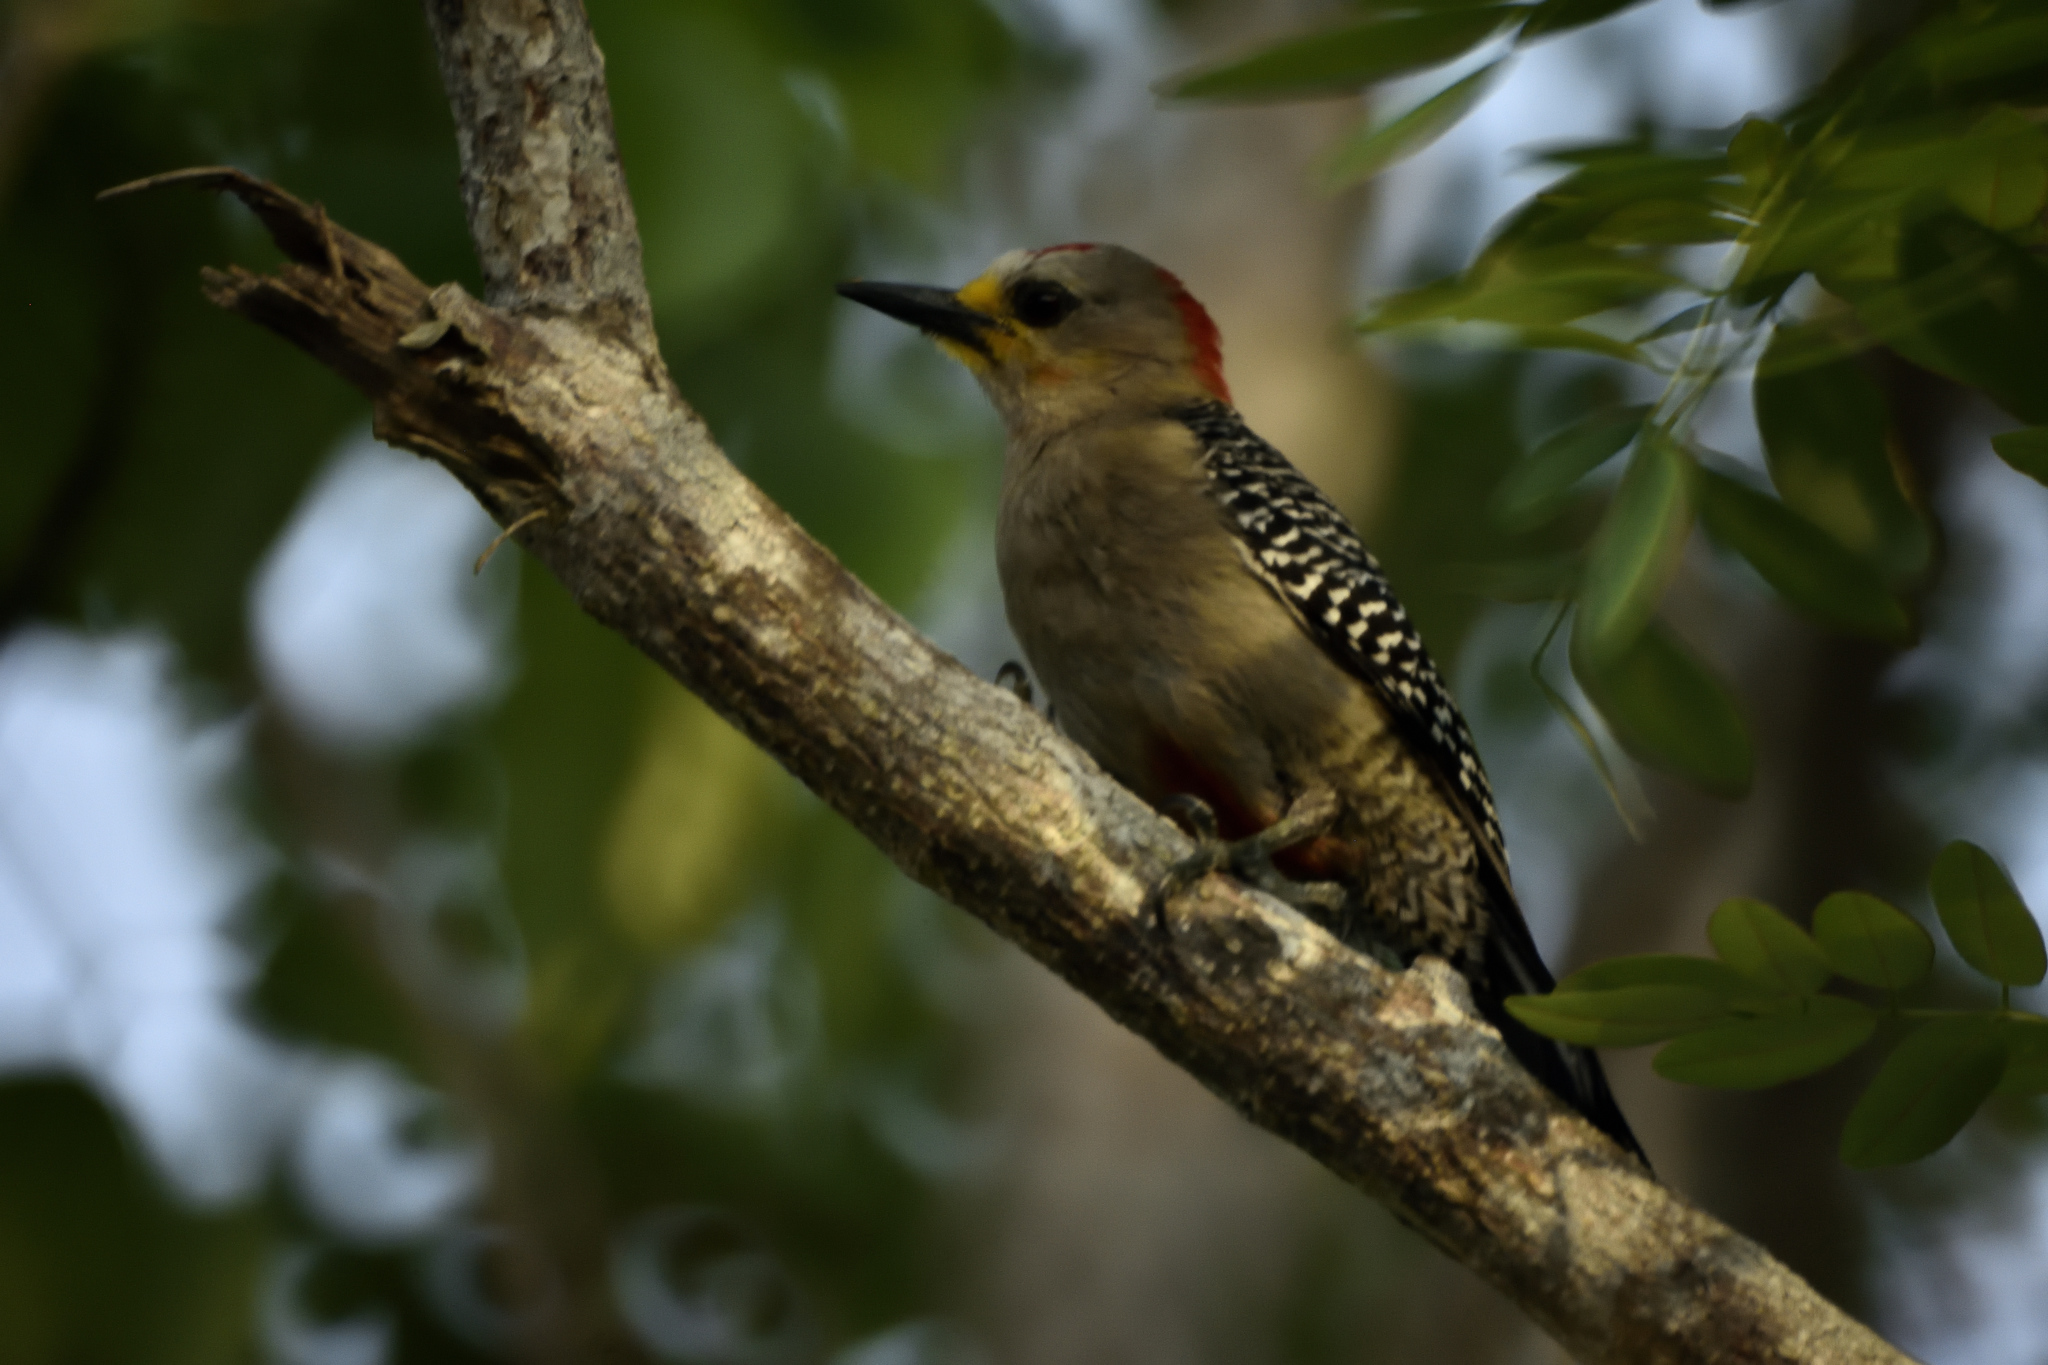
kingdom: Animalia
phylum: Chordata
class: Aves
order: Piciformes
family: Picidae
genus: Melanerpes
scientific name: Melanerpes pygmaeus
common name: Yucatan woodpecker
